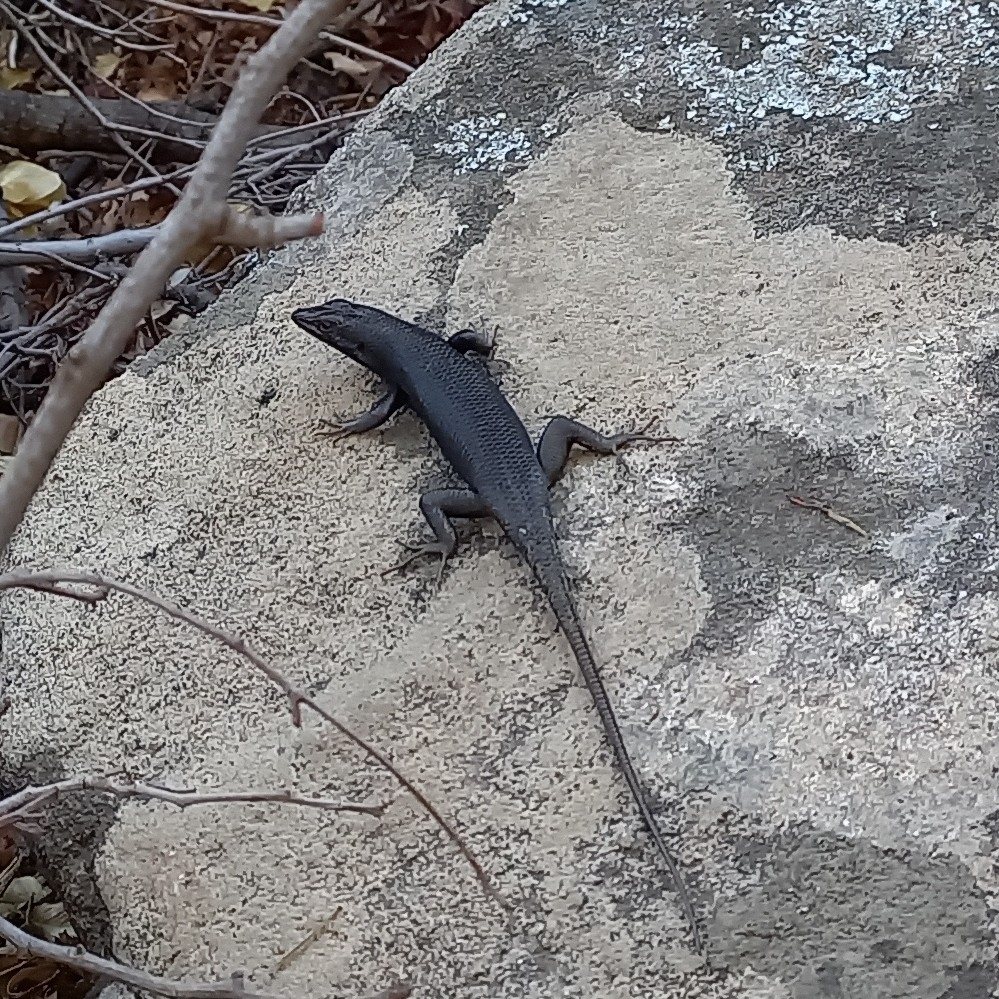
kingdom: Animalia
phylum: Chordata
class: Squamata
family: Scincidae
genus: Trachylepis
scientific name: Trachylepis sulcata
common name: Western rock skink
